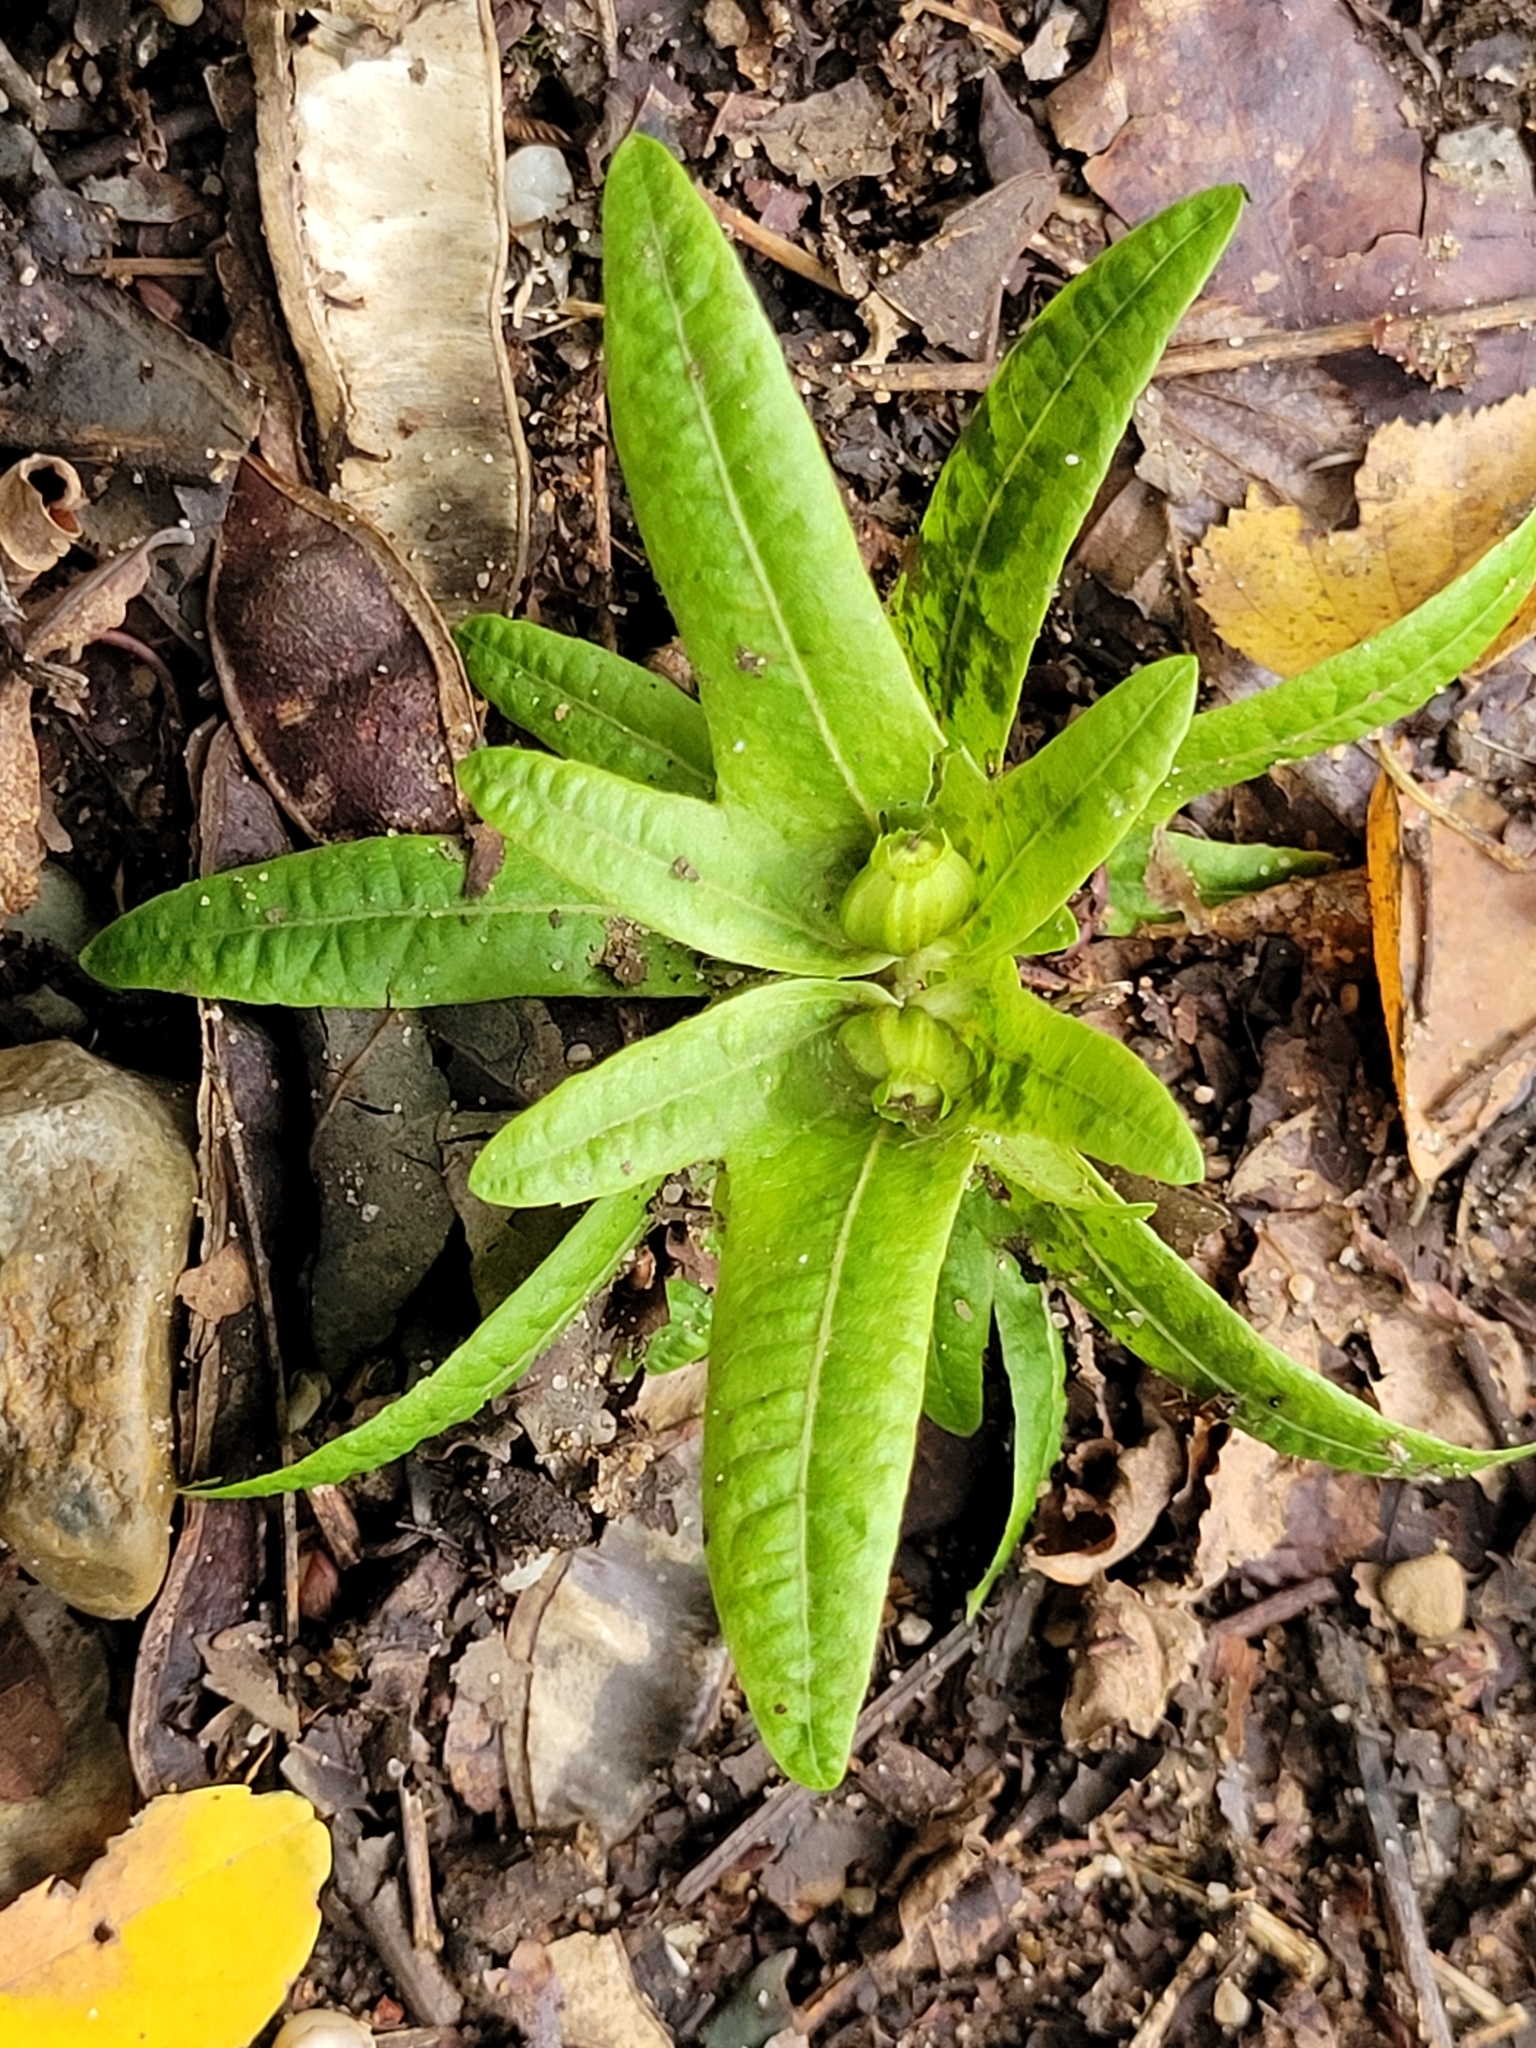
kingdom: Plantae
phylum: Tracheophyta
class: Magnoliopsida
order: Fagales
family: Betulaceae
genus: Carpinus
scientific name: Carpinus betulus
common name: Hornbeam
